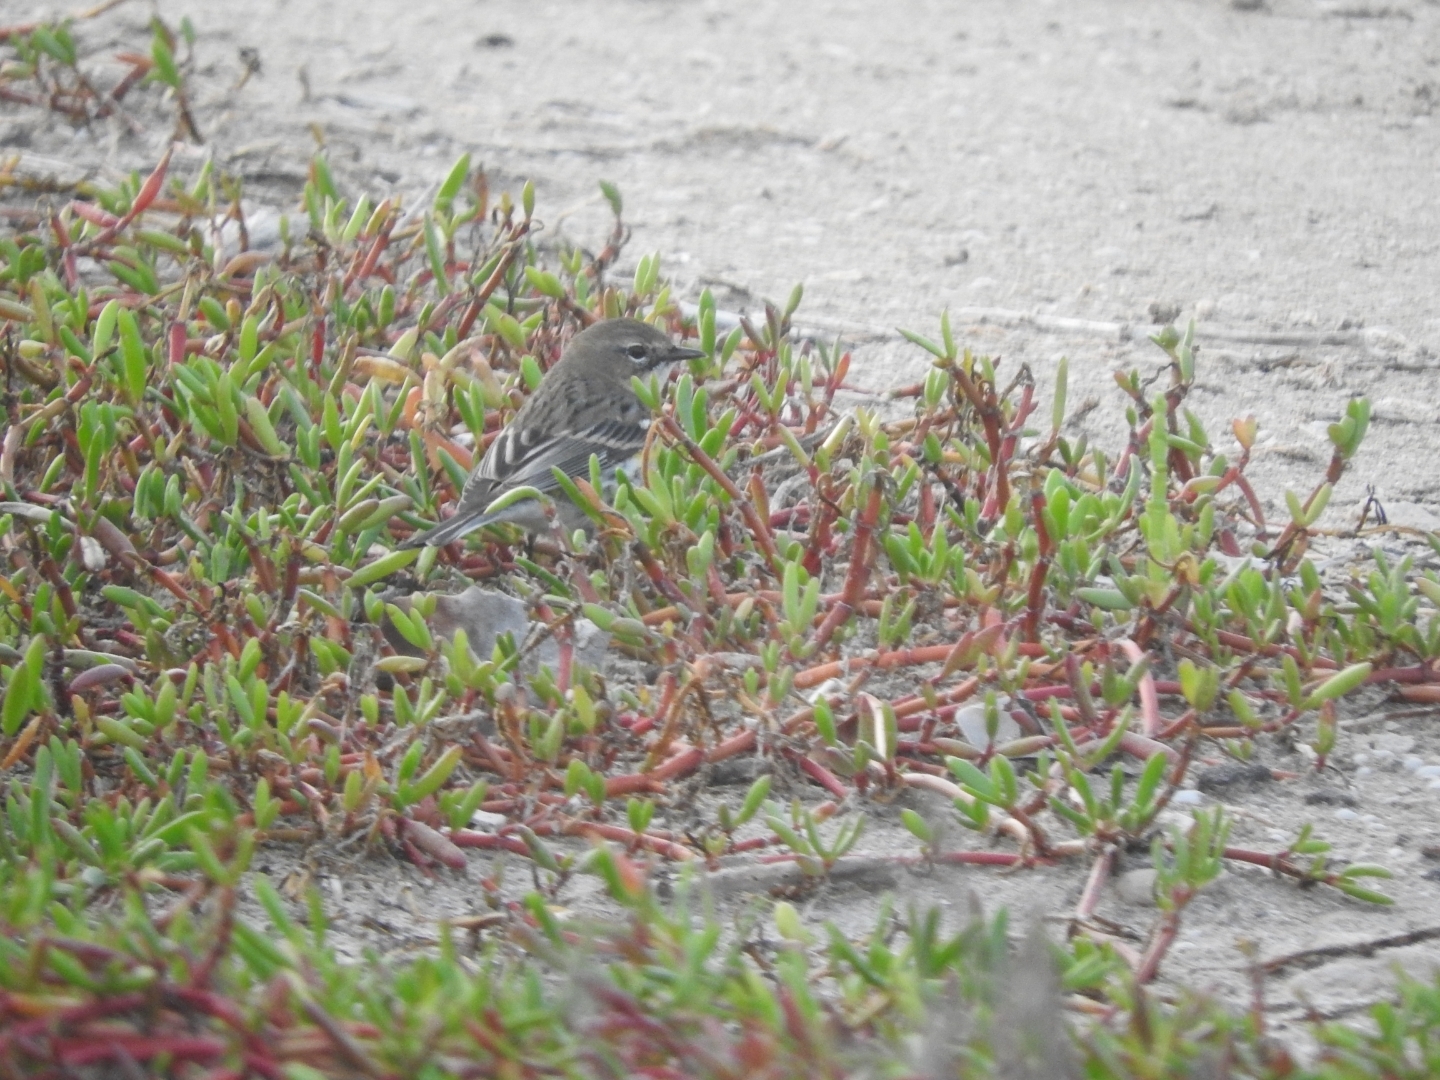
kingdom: Animalia
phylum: Chordata
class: Aves
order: Passeriformes
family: Parulidae
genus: Setophaga
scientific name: Setophaga coronata
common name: Myrtle warbler
